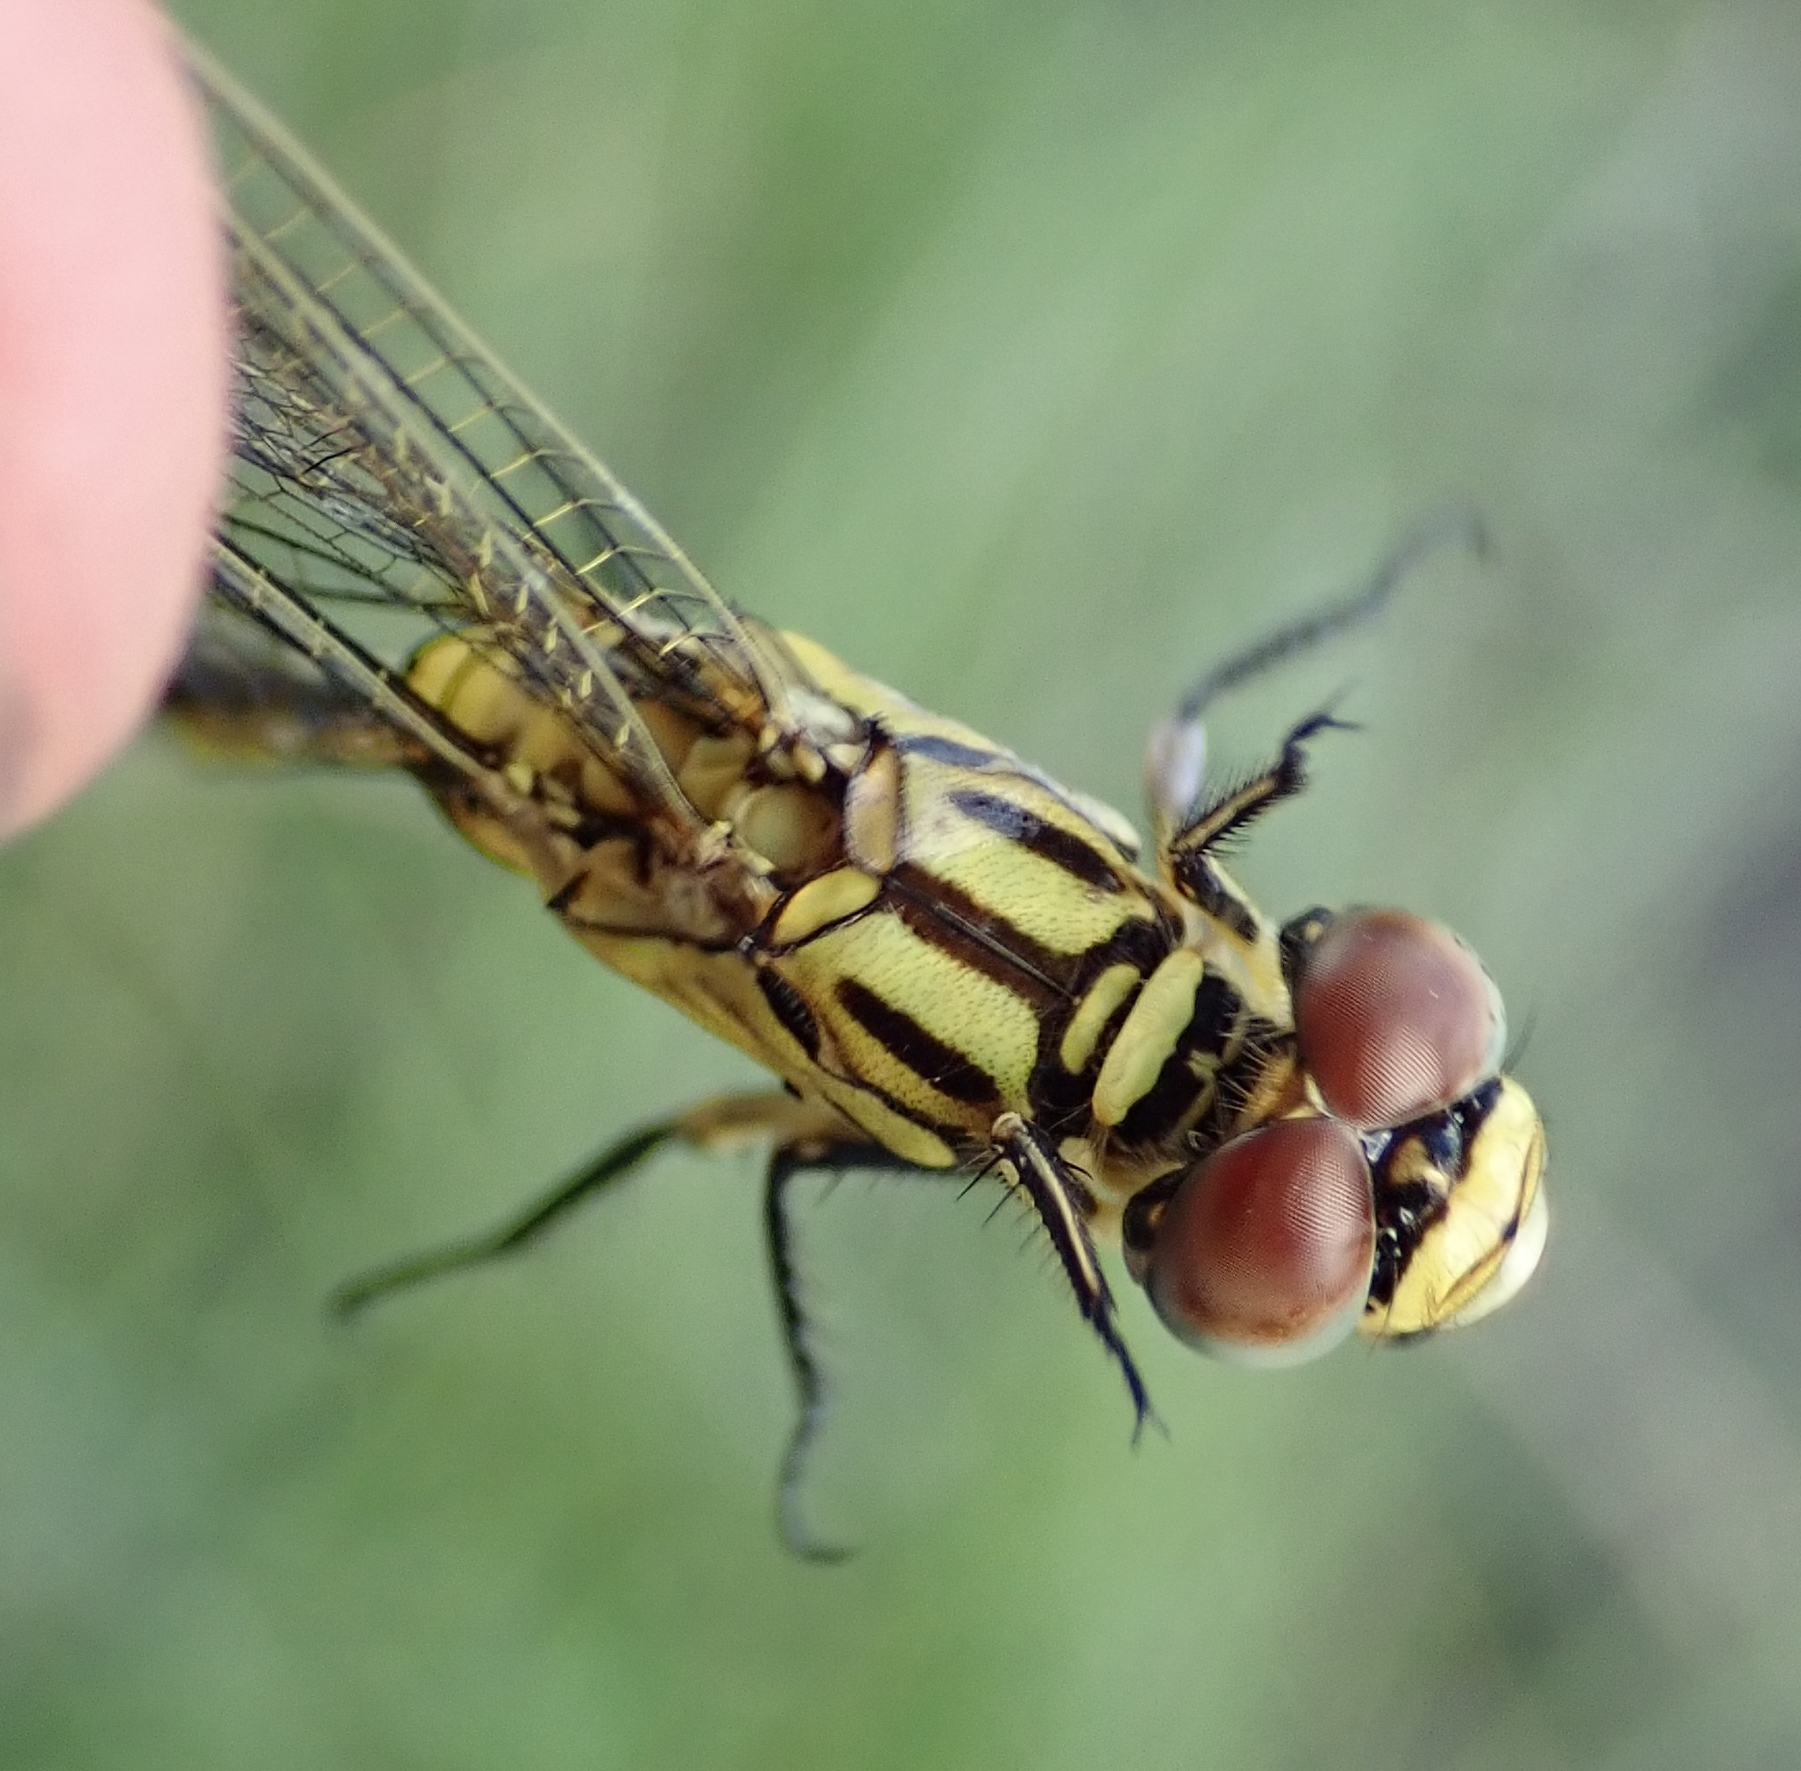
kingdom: Animalia
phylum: Arthropoda
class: Insecta
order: Odonata
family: Libellulidae
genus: Orthetrum
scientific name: Orthetrum icteromelas
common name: Spectacled skimmer
